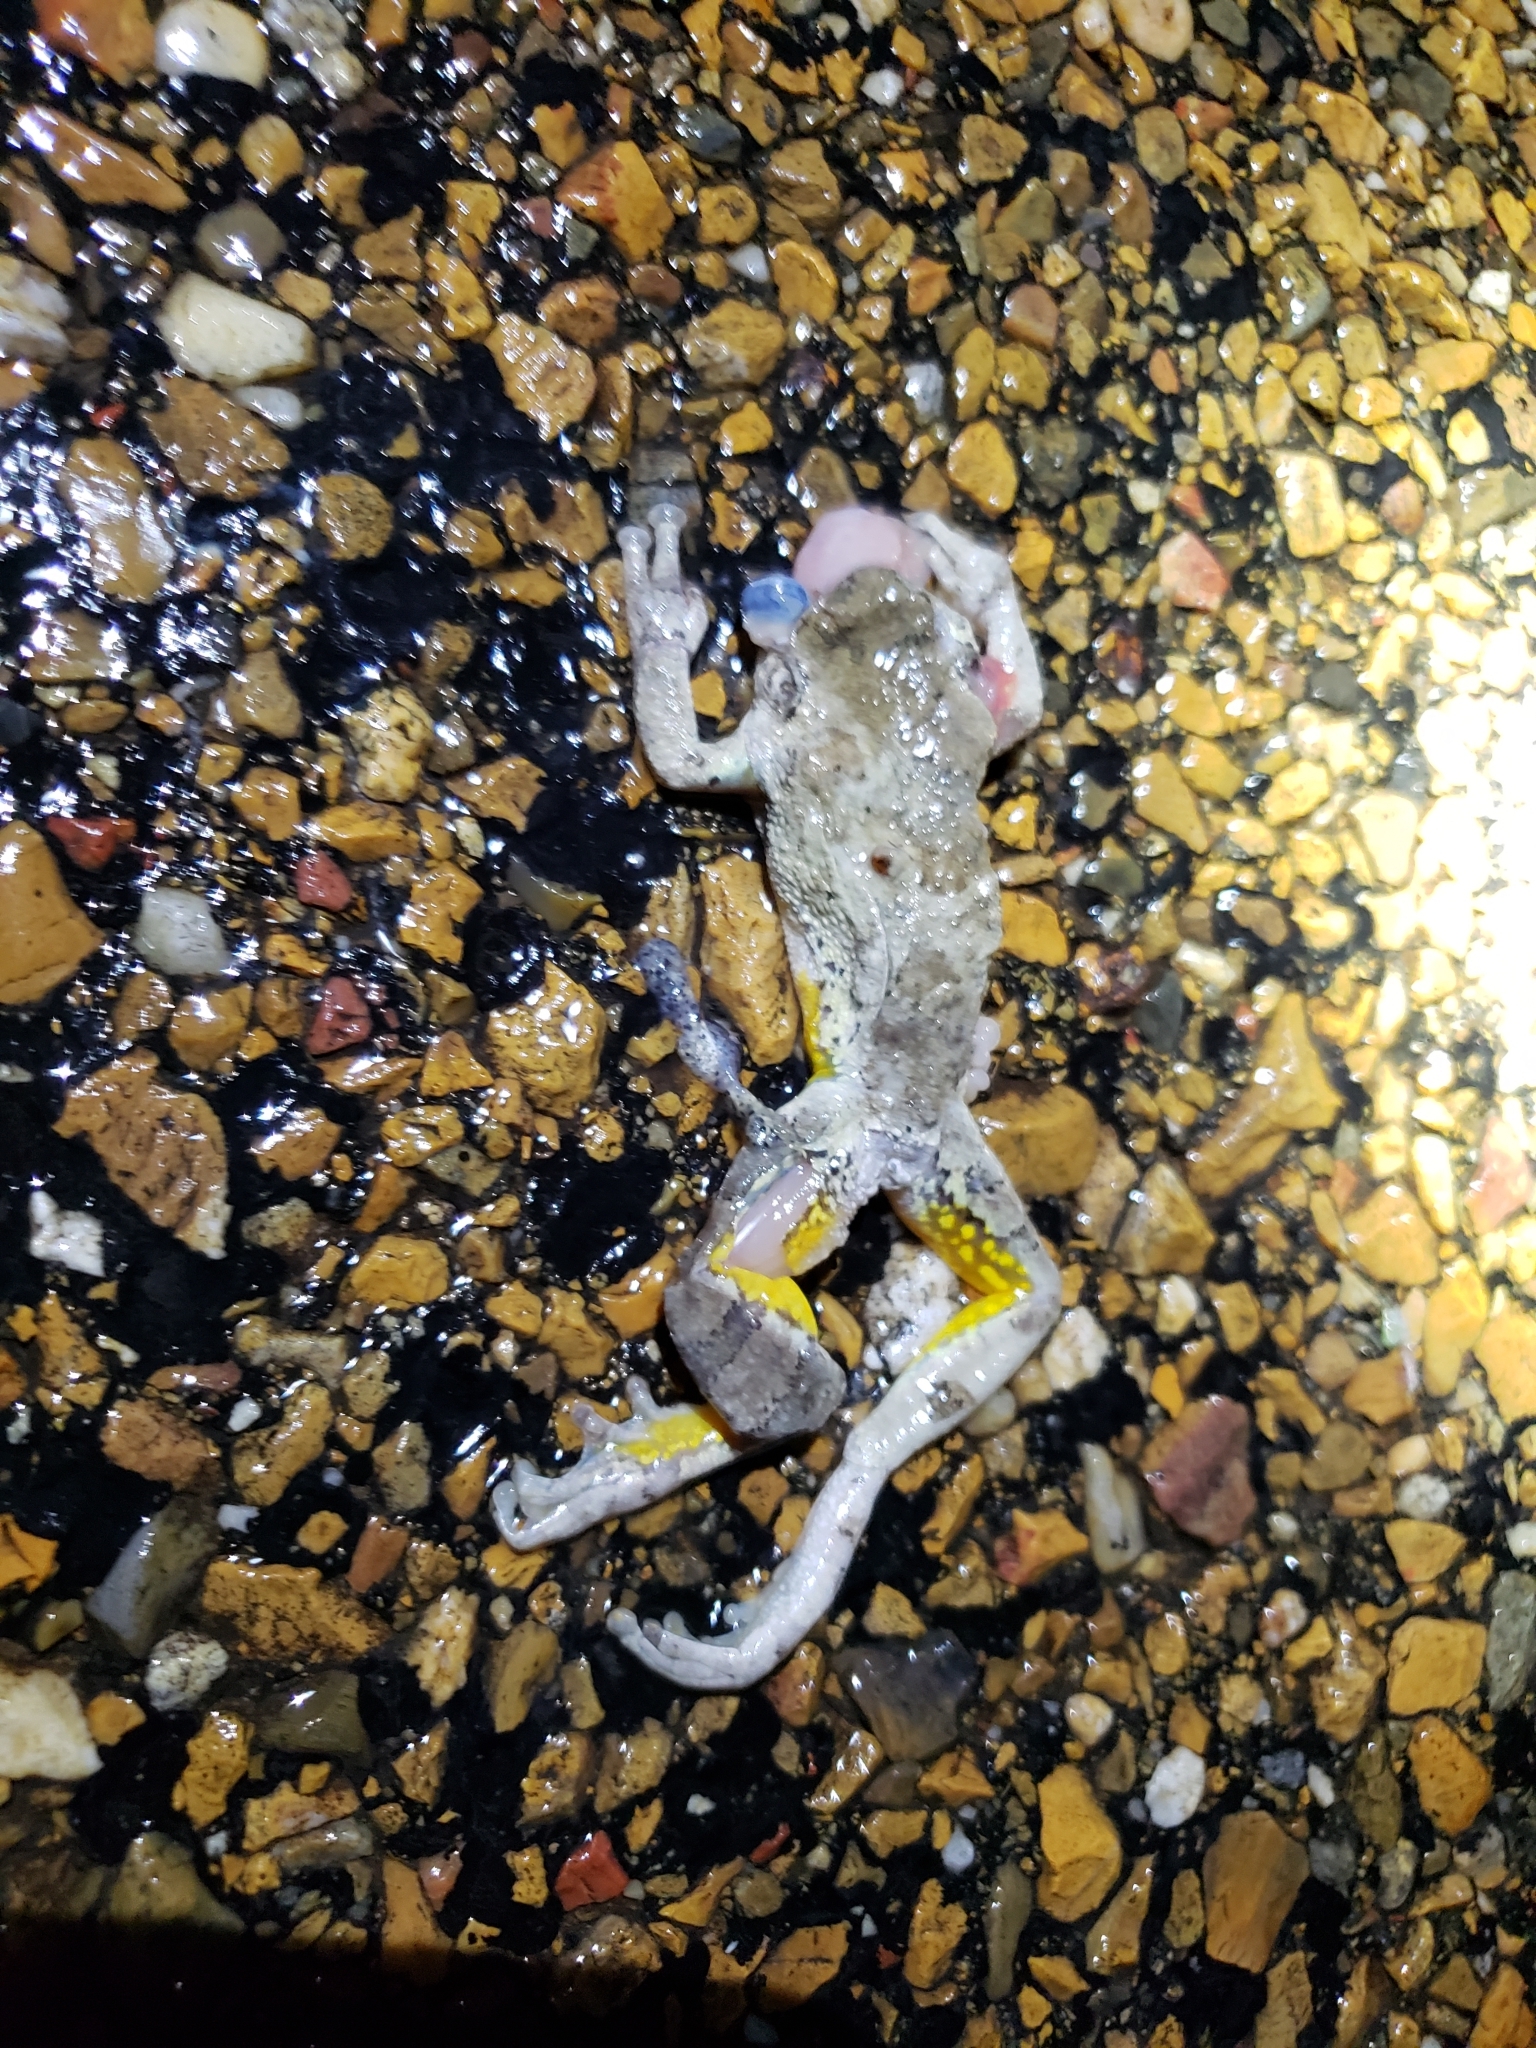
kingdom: Animalia
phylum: Chordata
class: Amphibia
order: Anura
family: Hylidae
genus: Dryophytes
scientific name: Dryophytes chrysoscelis
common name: Cope's gray treefrog
